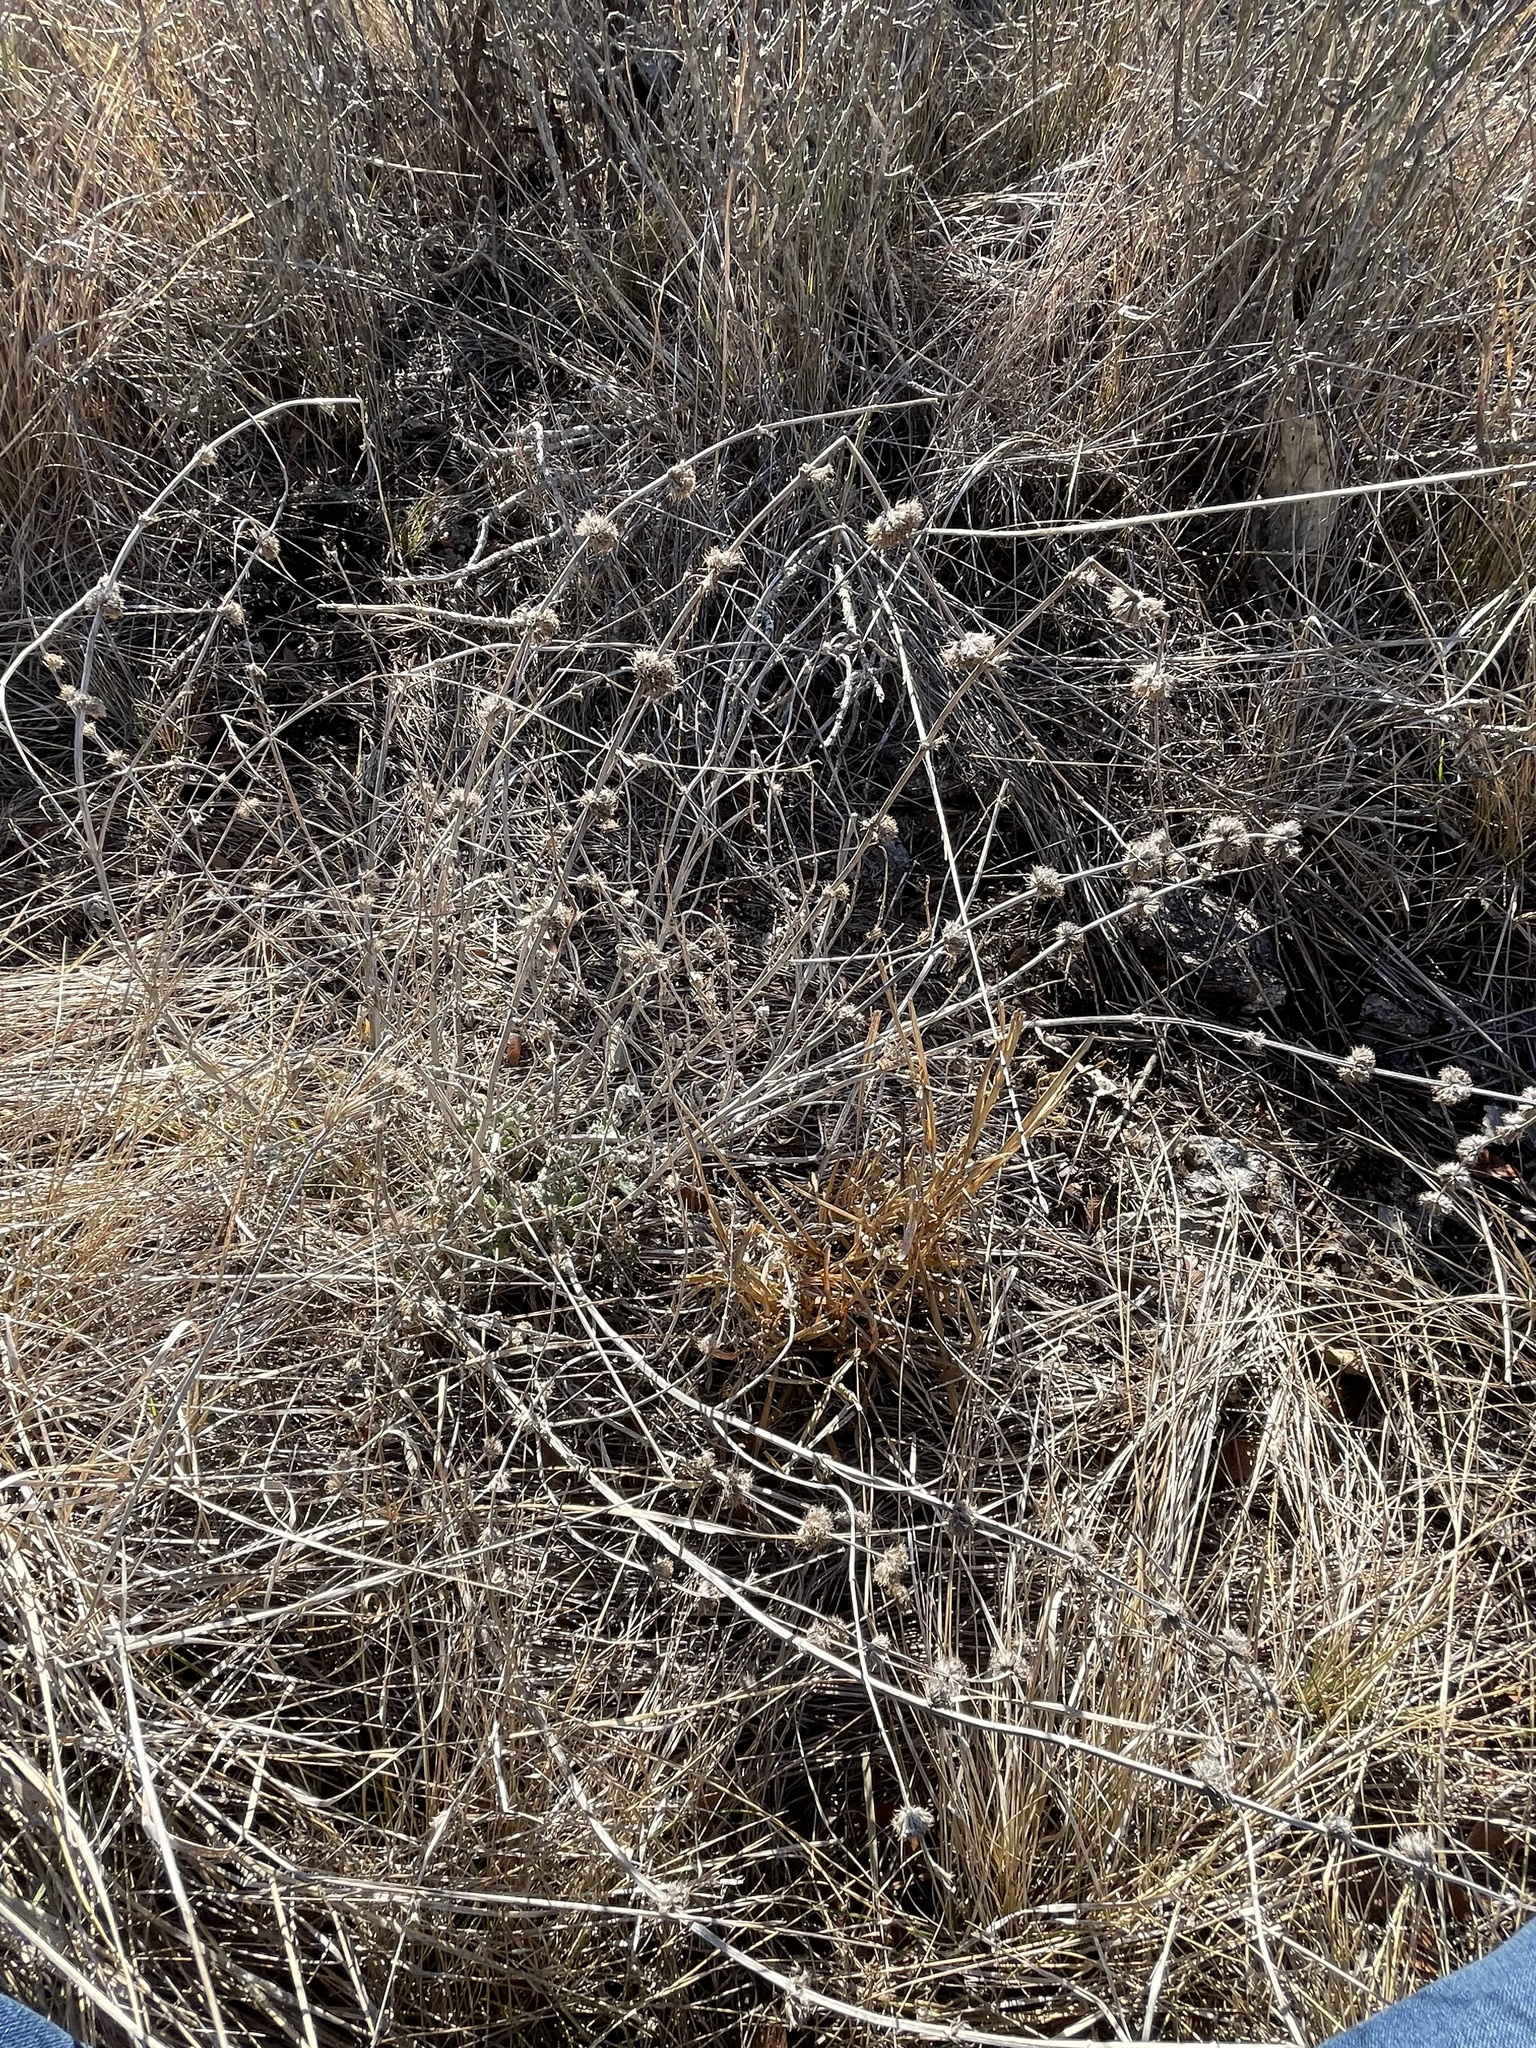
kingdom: Plantae
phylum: Tracheophyta
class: Magnoliopsida
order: Lamiales
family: Lamiaceae
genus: Marrubium
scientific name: Marrubium vulgare
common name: Horehound
